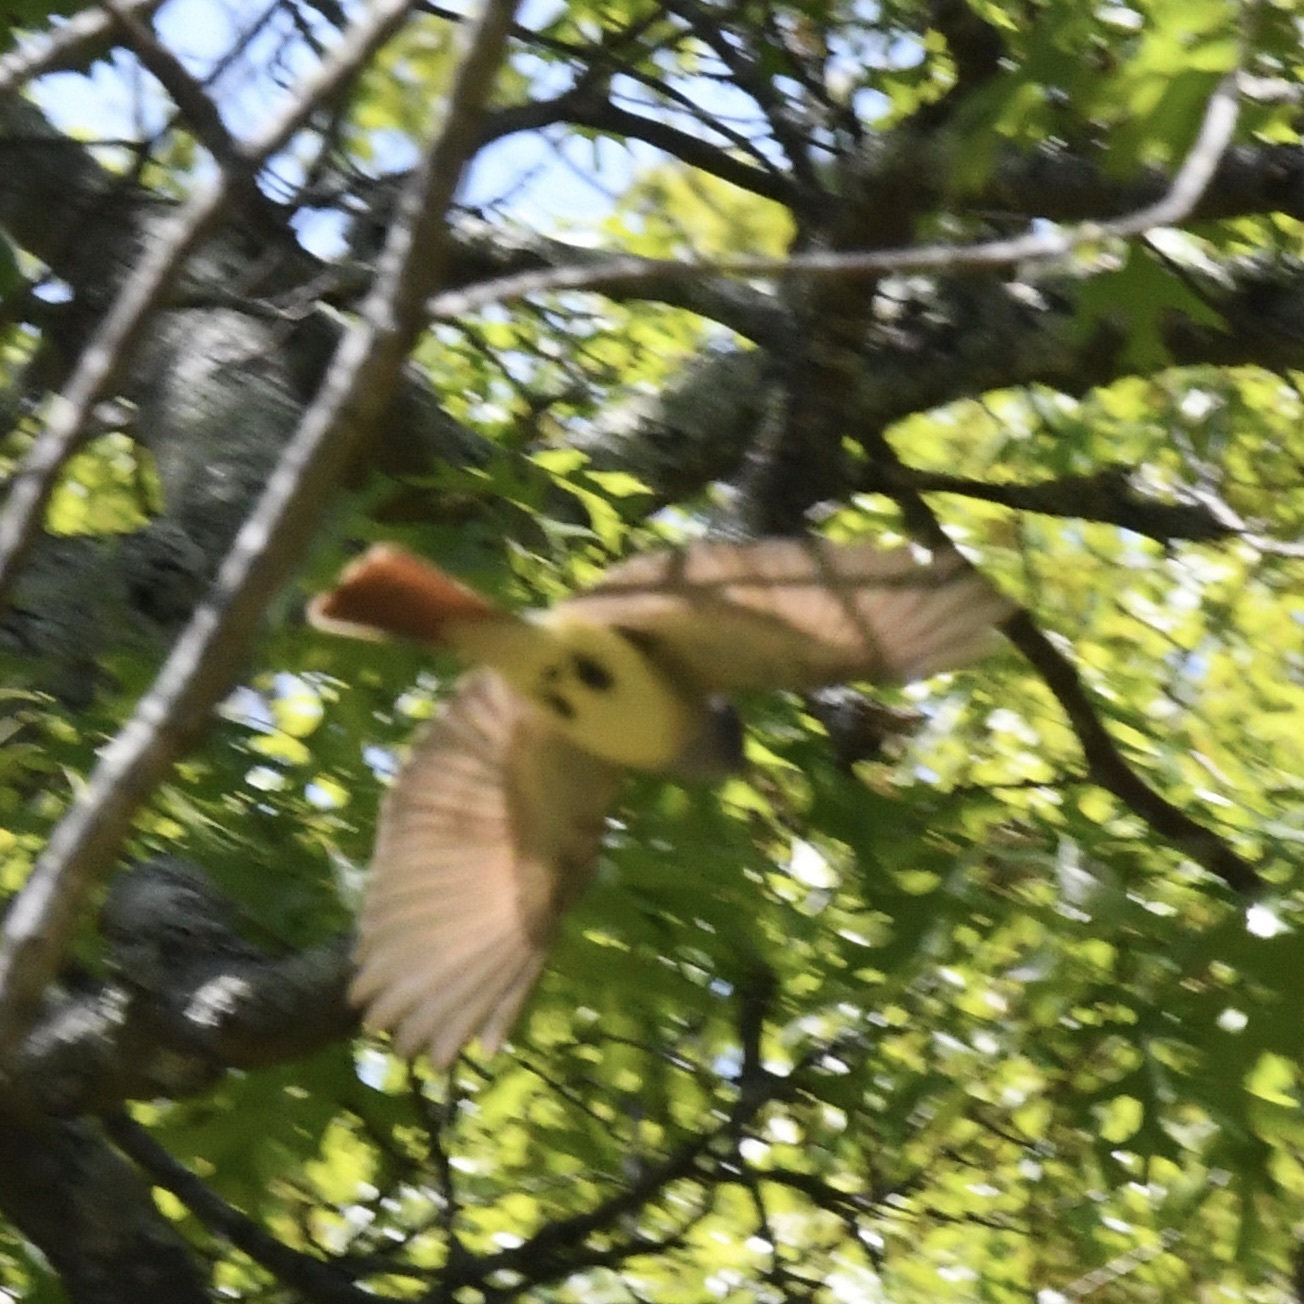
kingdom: Animalia
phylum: Chordata
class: Aves
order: Passeriformes
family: Tyrannidae
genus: Myiarchus
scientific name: Myiarchus crinitus
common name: Great crested flycatcher
